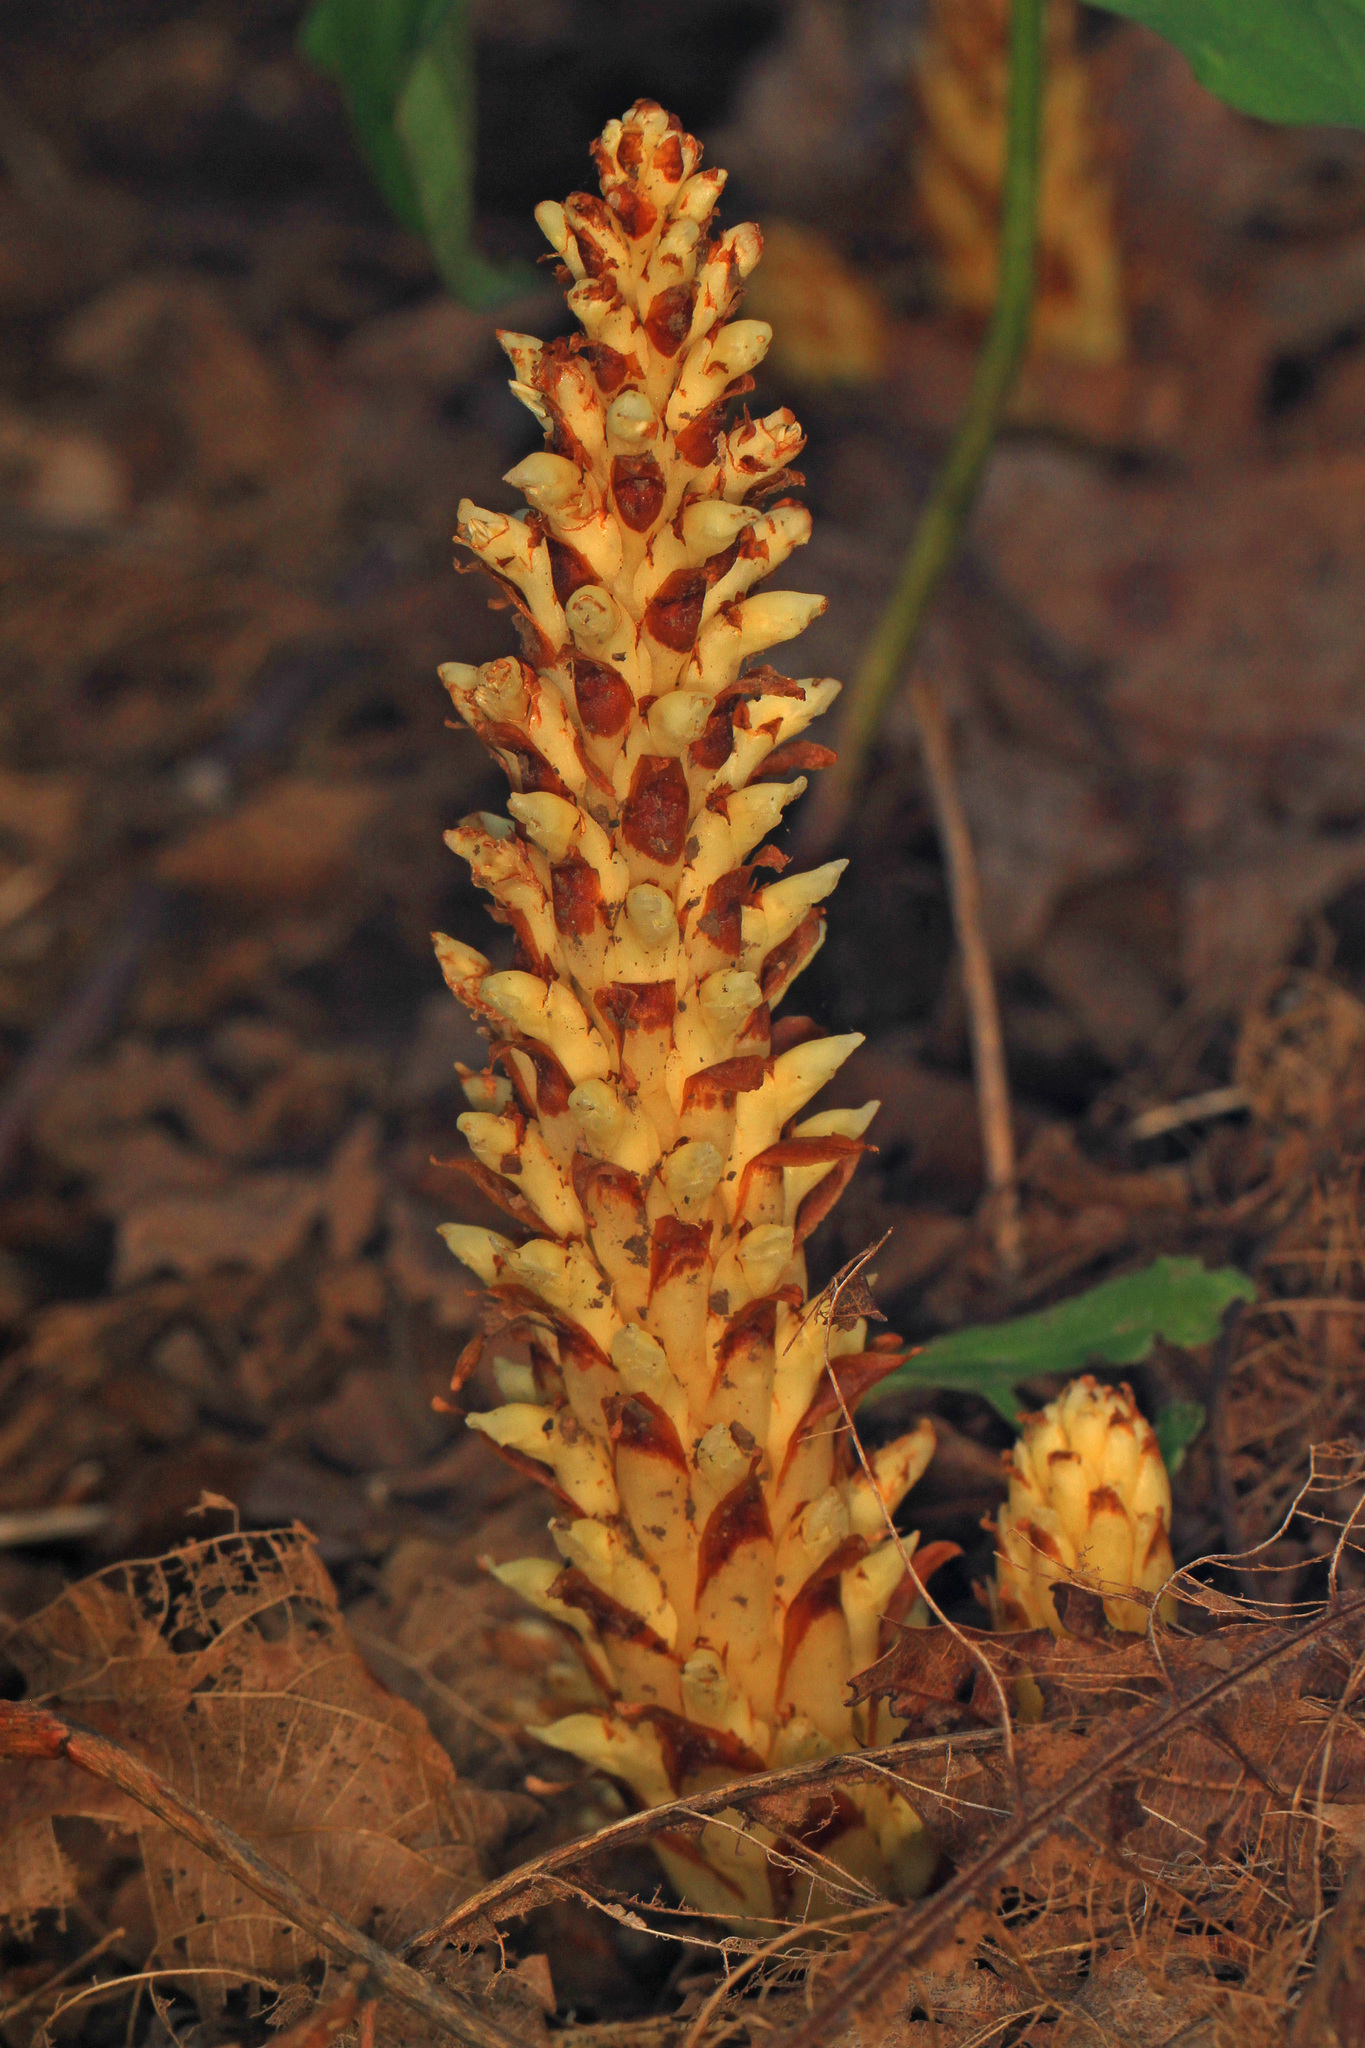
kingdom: Plantae
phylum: Tracheophyta
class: Magnoliopsida
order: Lamiales
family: Orobanchaceae
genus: Conopholis
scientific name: Conopholis americana
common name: American cancer-root
